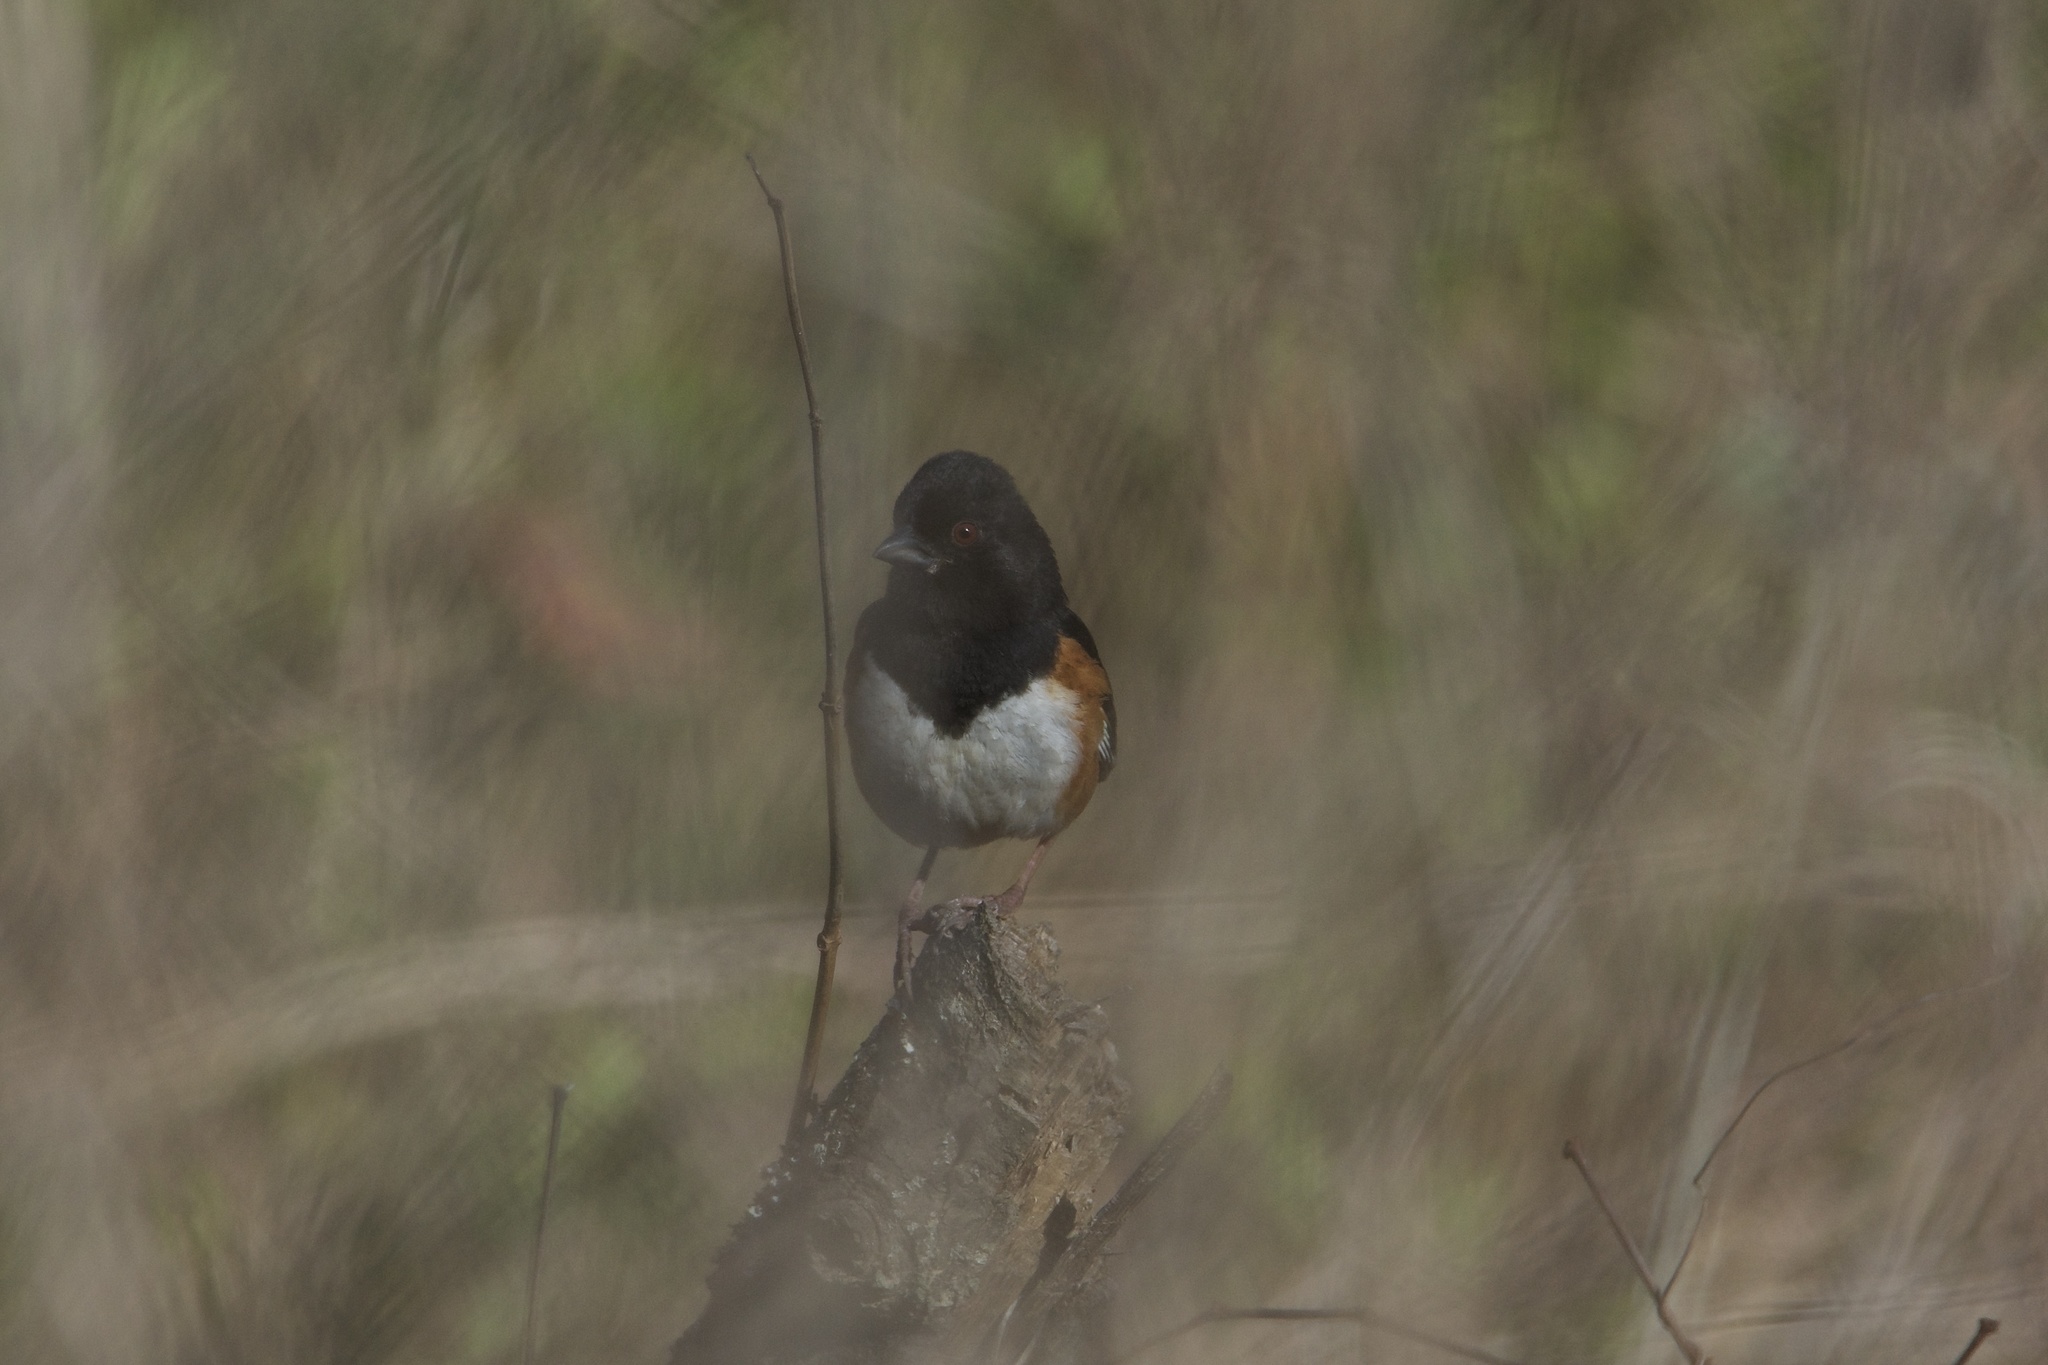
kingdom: Animalia
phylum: Chordata
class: Aves
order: Passeriformes
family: Passerellidae
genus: Pipilo
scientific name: Pipilo erythrophthalmus
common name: Eastern towhee
